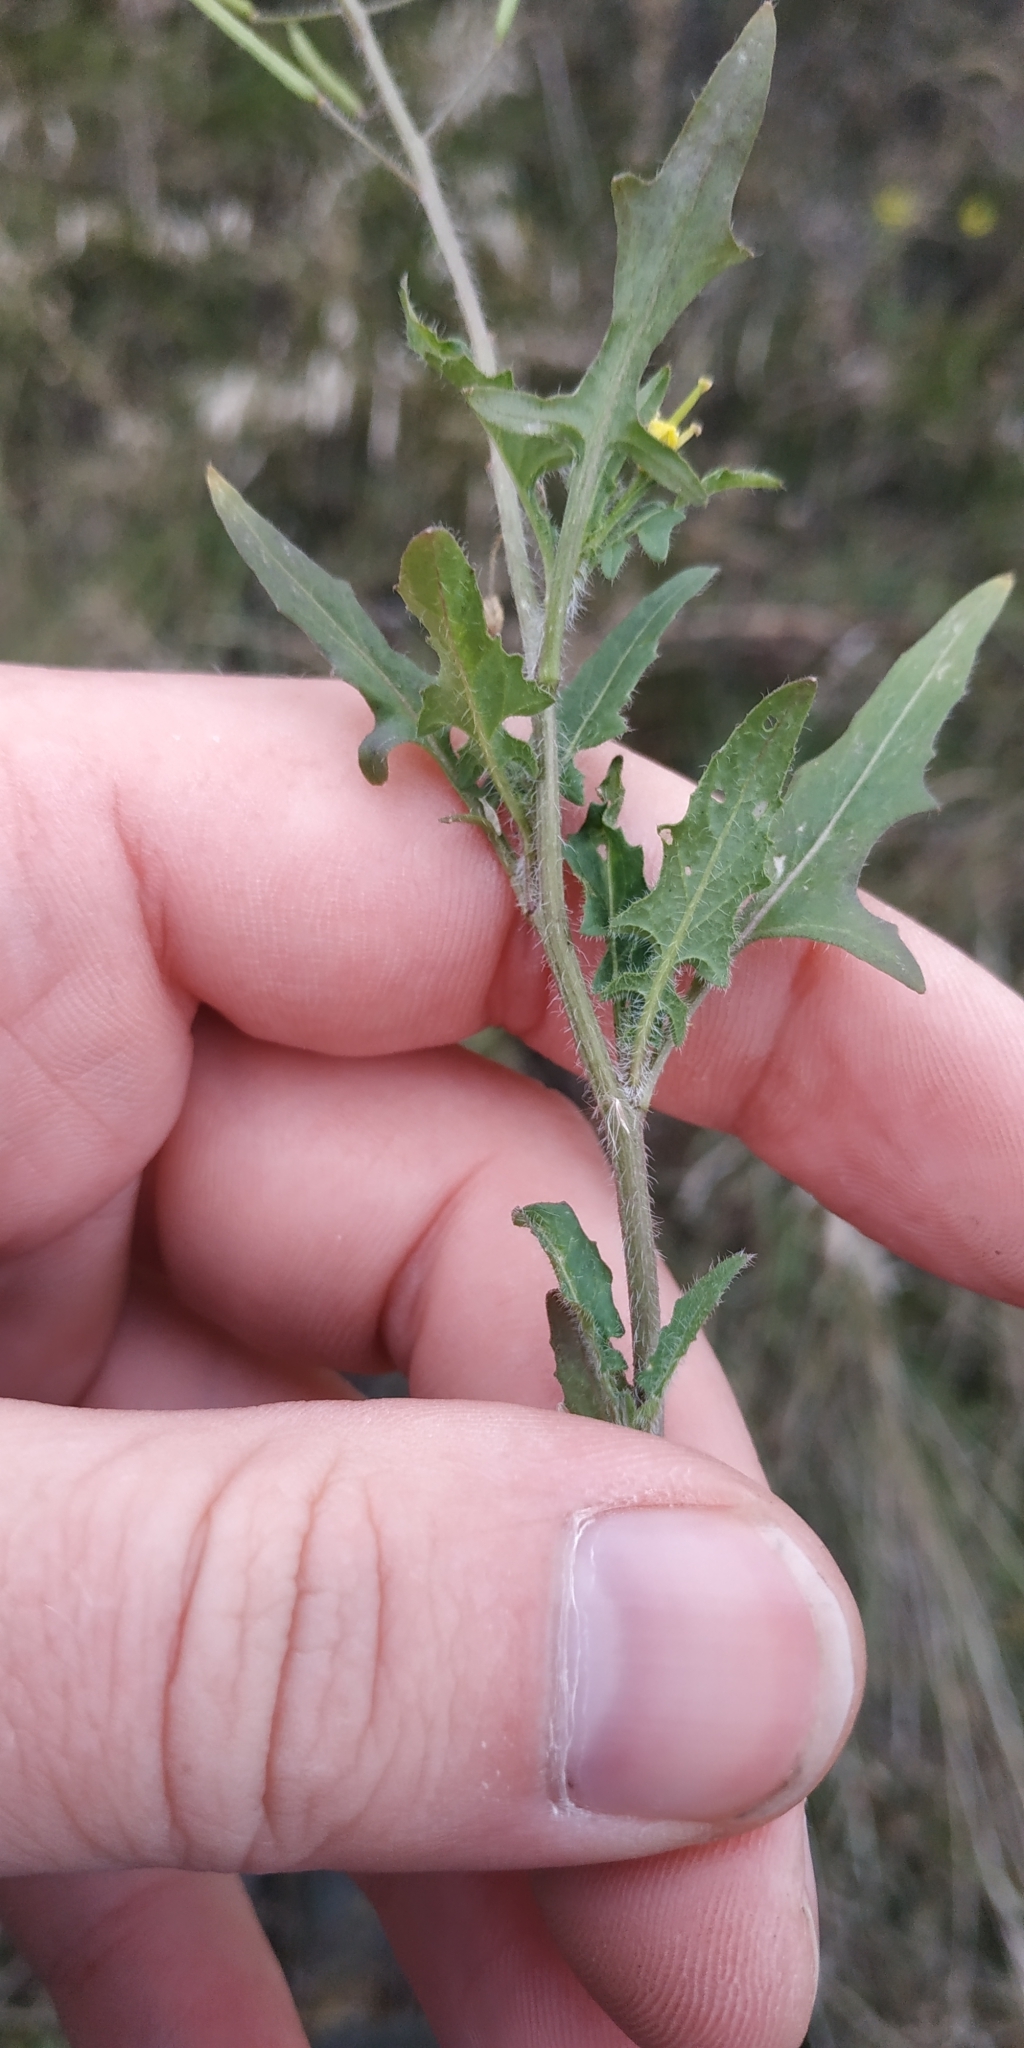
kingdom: Plantae
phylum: Tracheophyta
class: Magnoliopsida
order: Brassicales
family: Brassicaceae
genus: Sisymbrium
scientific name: Sisymbrium loeselii
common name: False london-rocket
